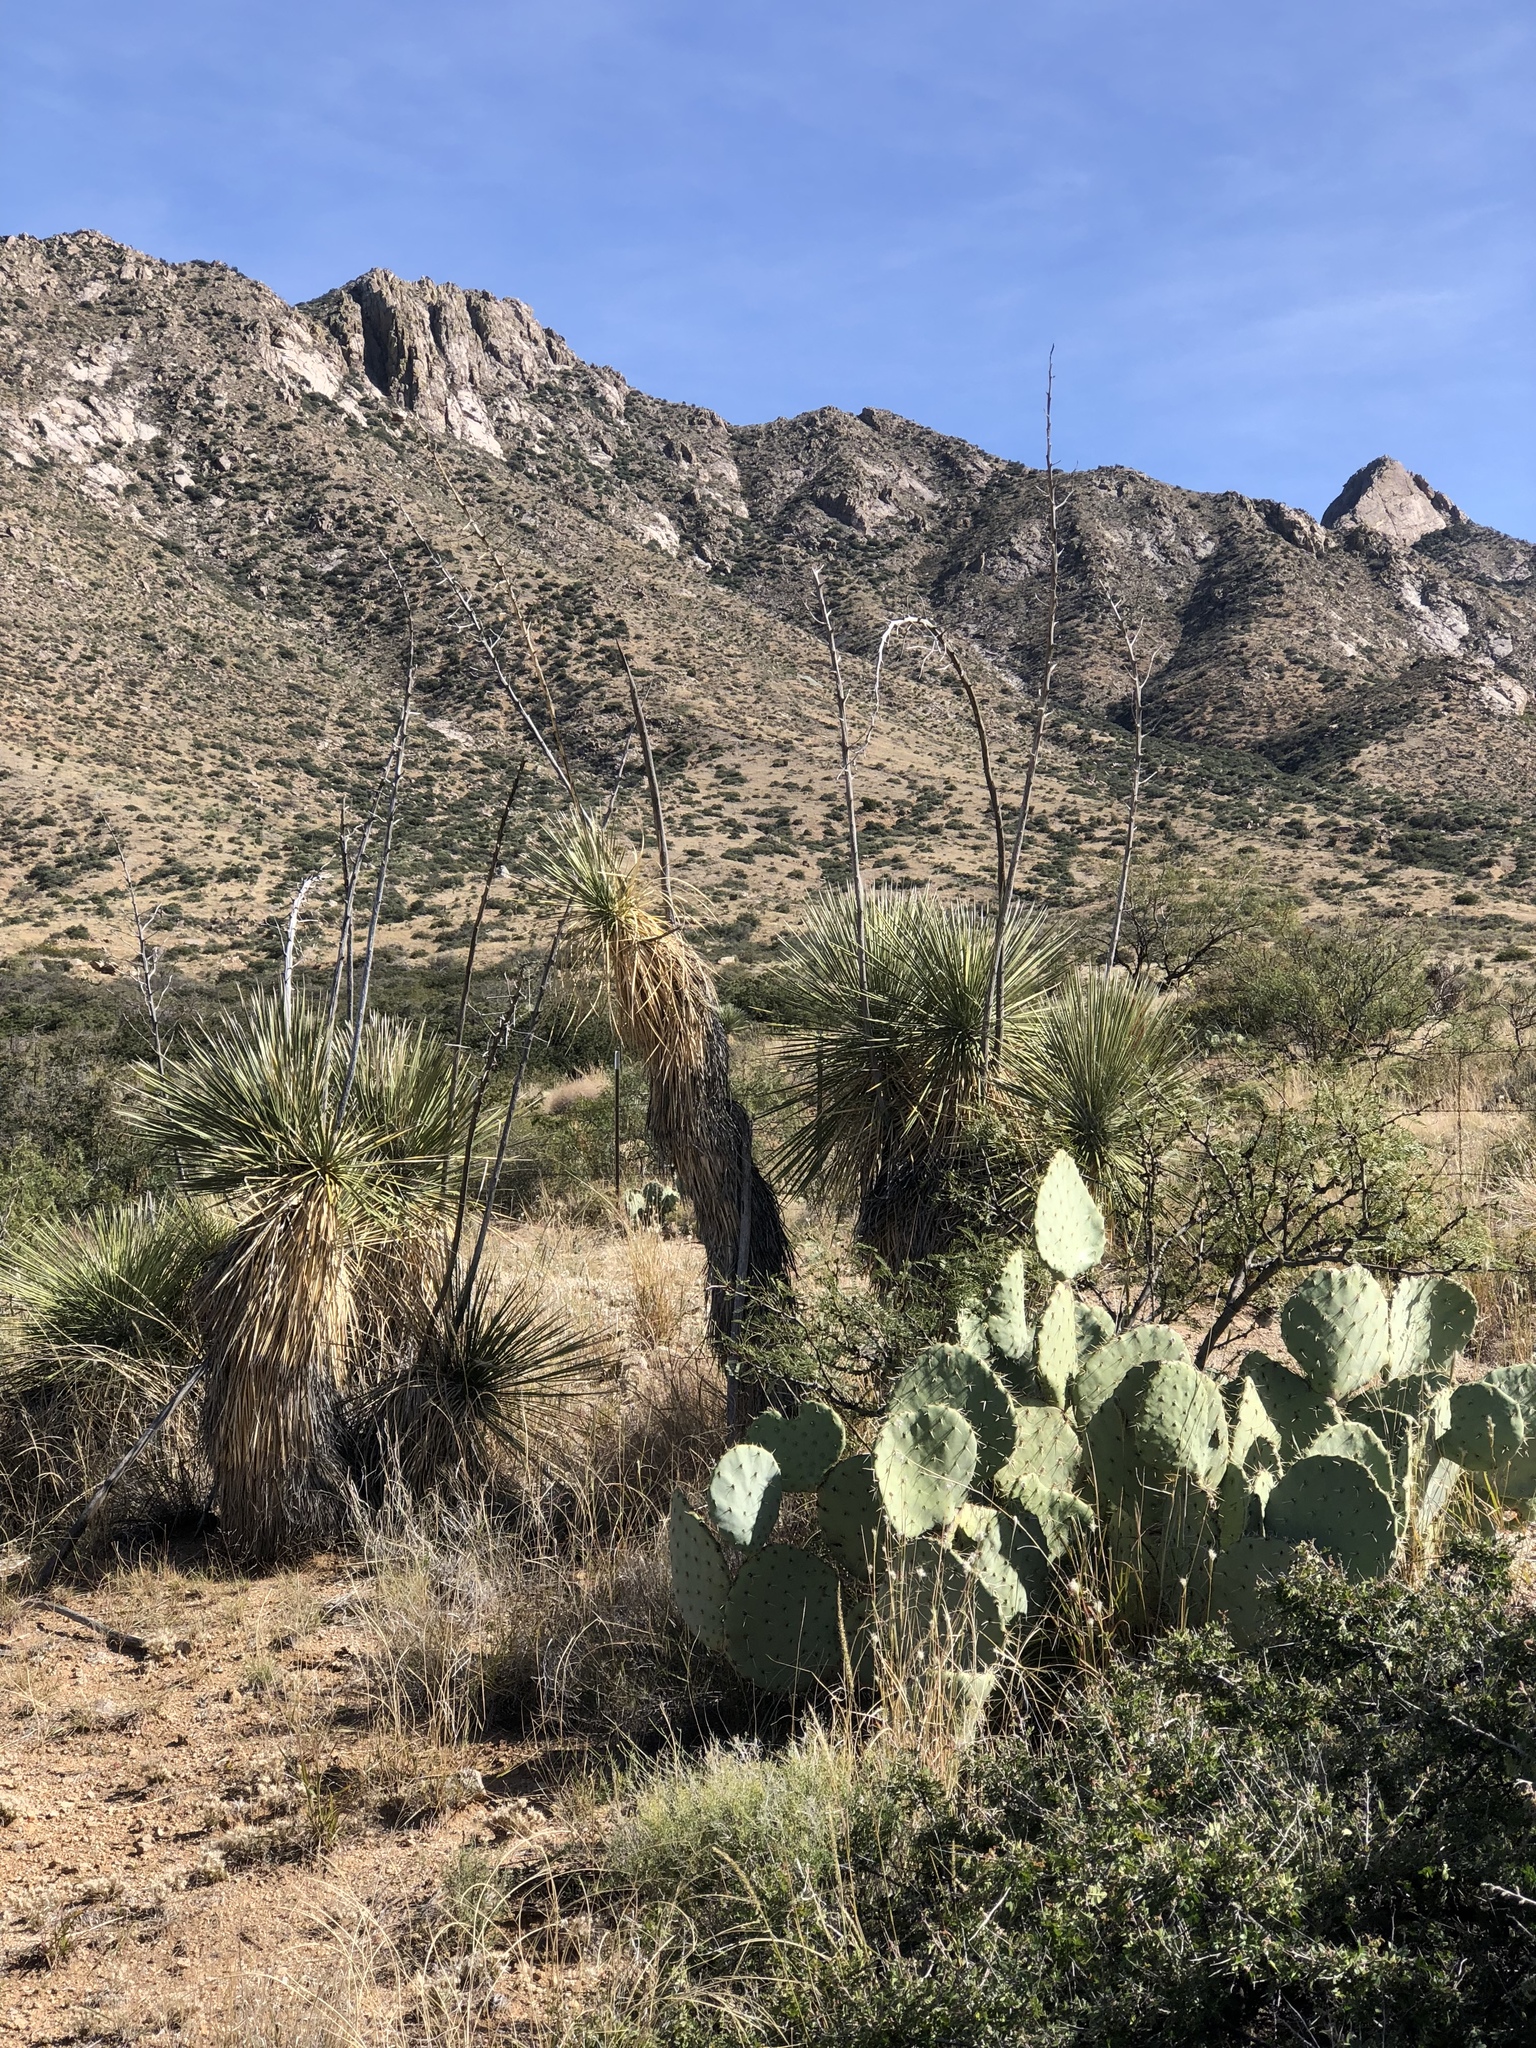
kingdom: Plantae
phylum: Tracheophyta
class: Liliopsida
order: Asparagales
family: Asparagaceae
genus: Yucca
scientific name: Yucca elata
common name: Palmella
